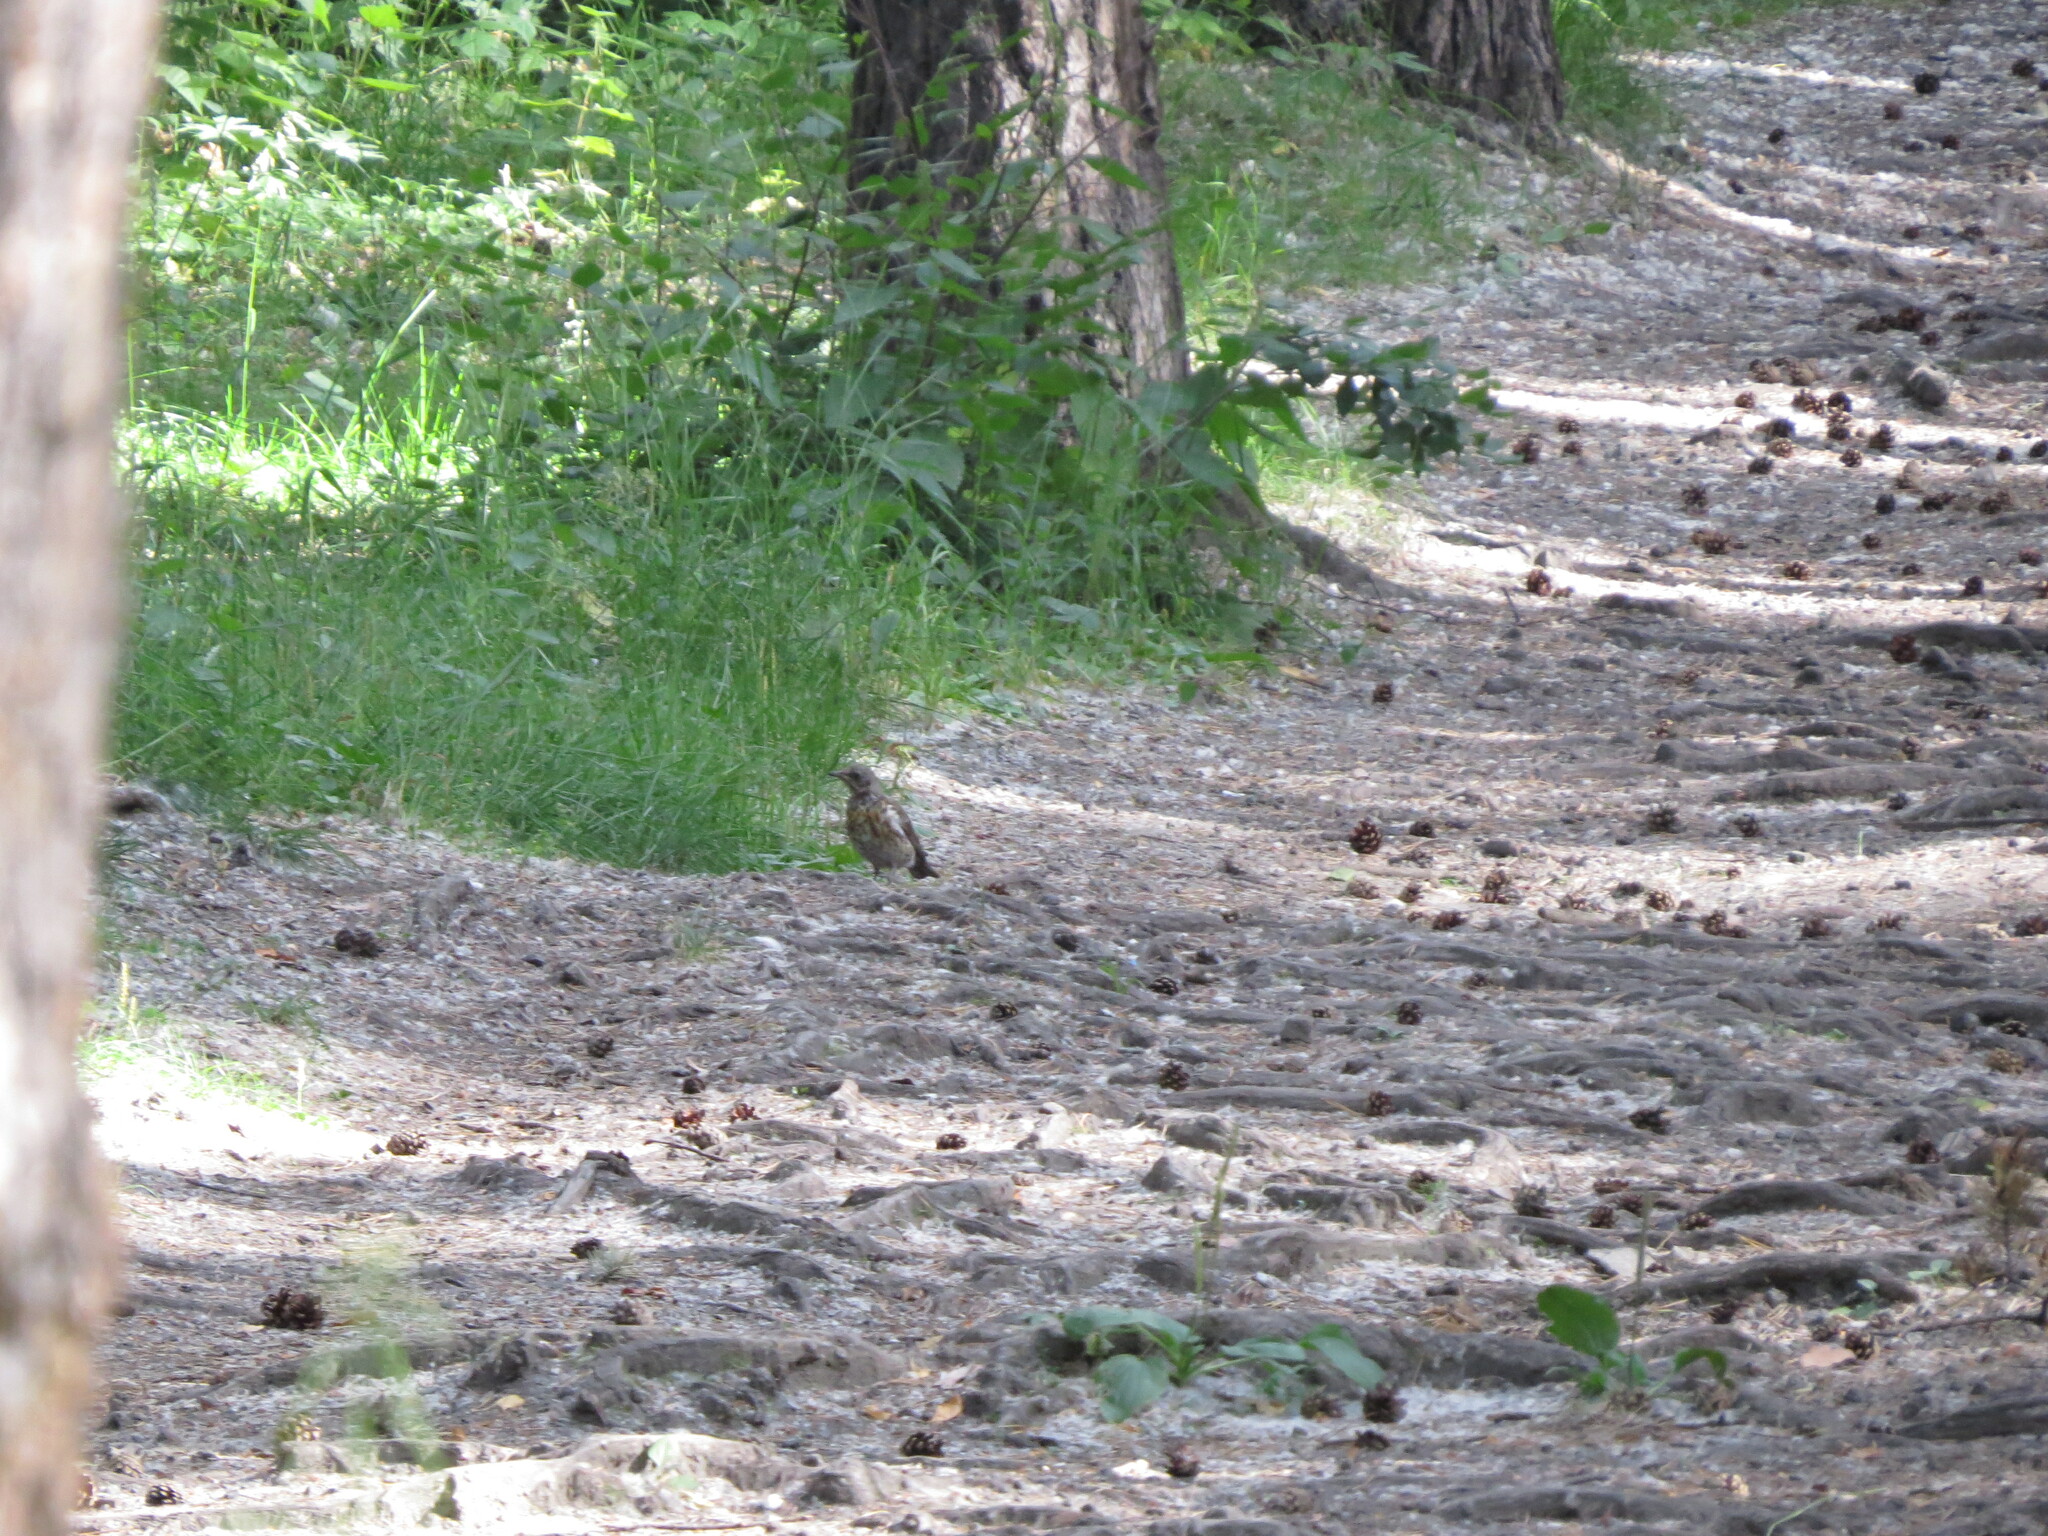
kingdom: Animalia
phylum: Chordata
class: Aves
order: Passeriformes
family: Turdidae
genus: Turdus
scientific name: Turdus pilaris
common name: Fieldfare
